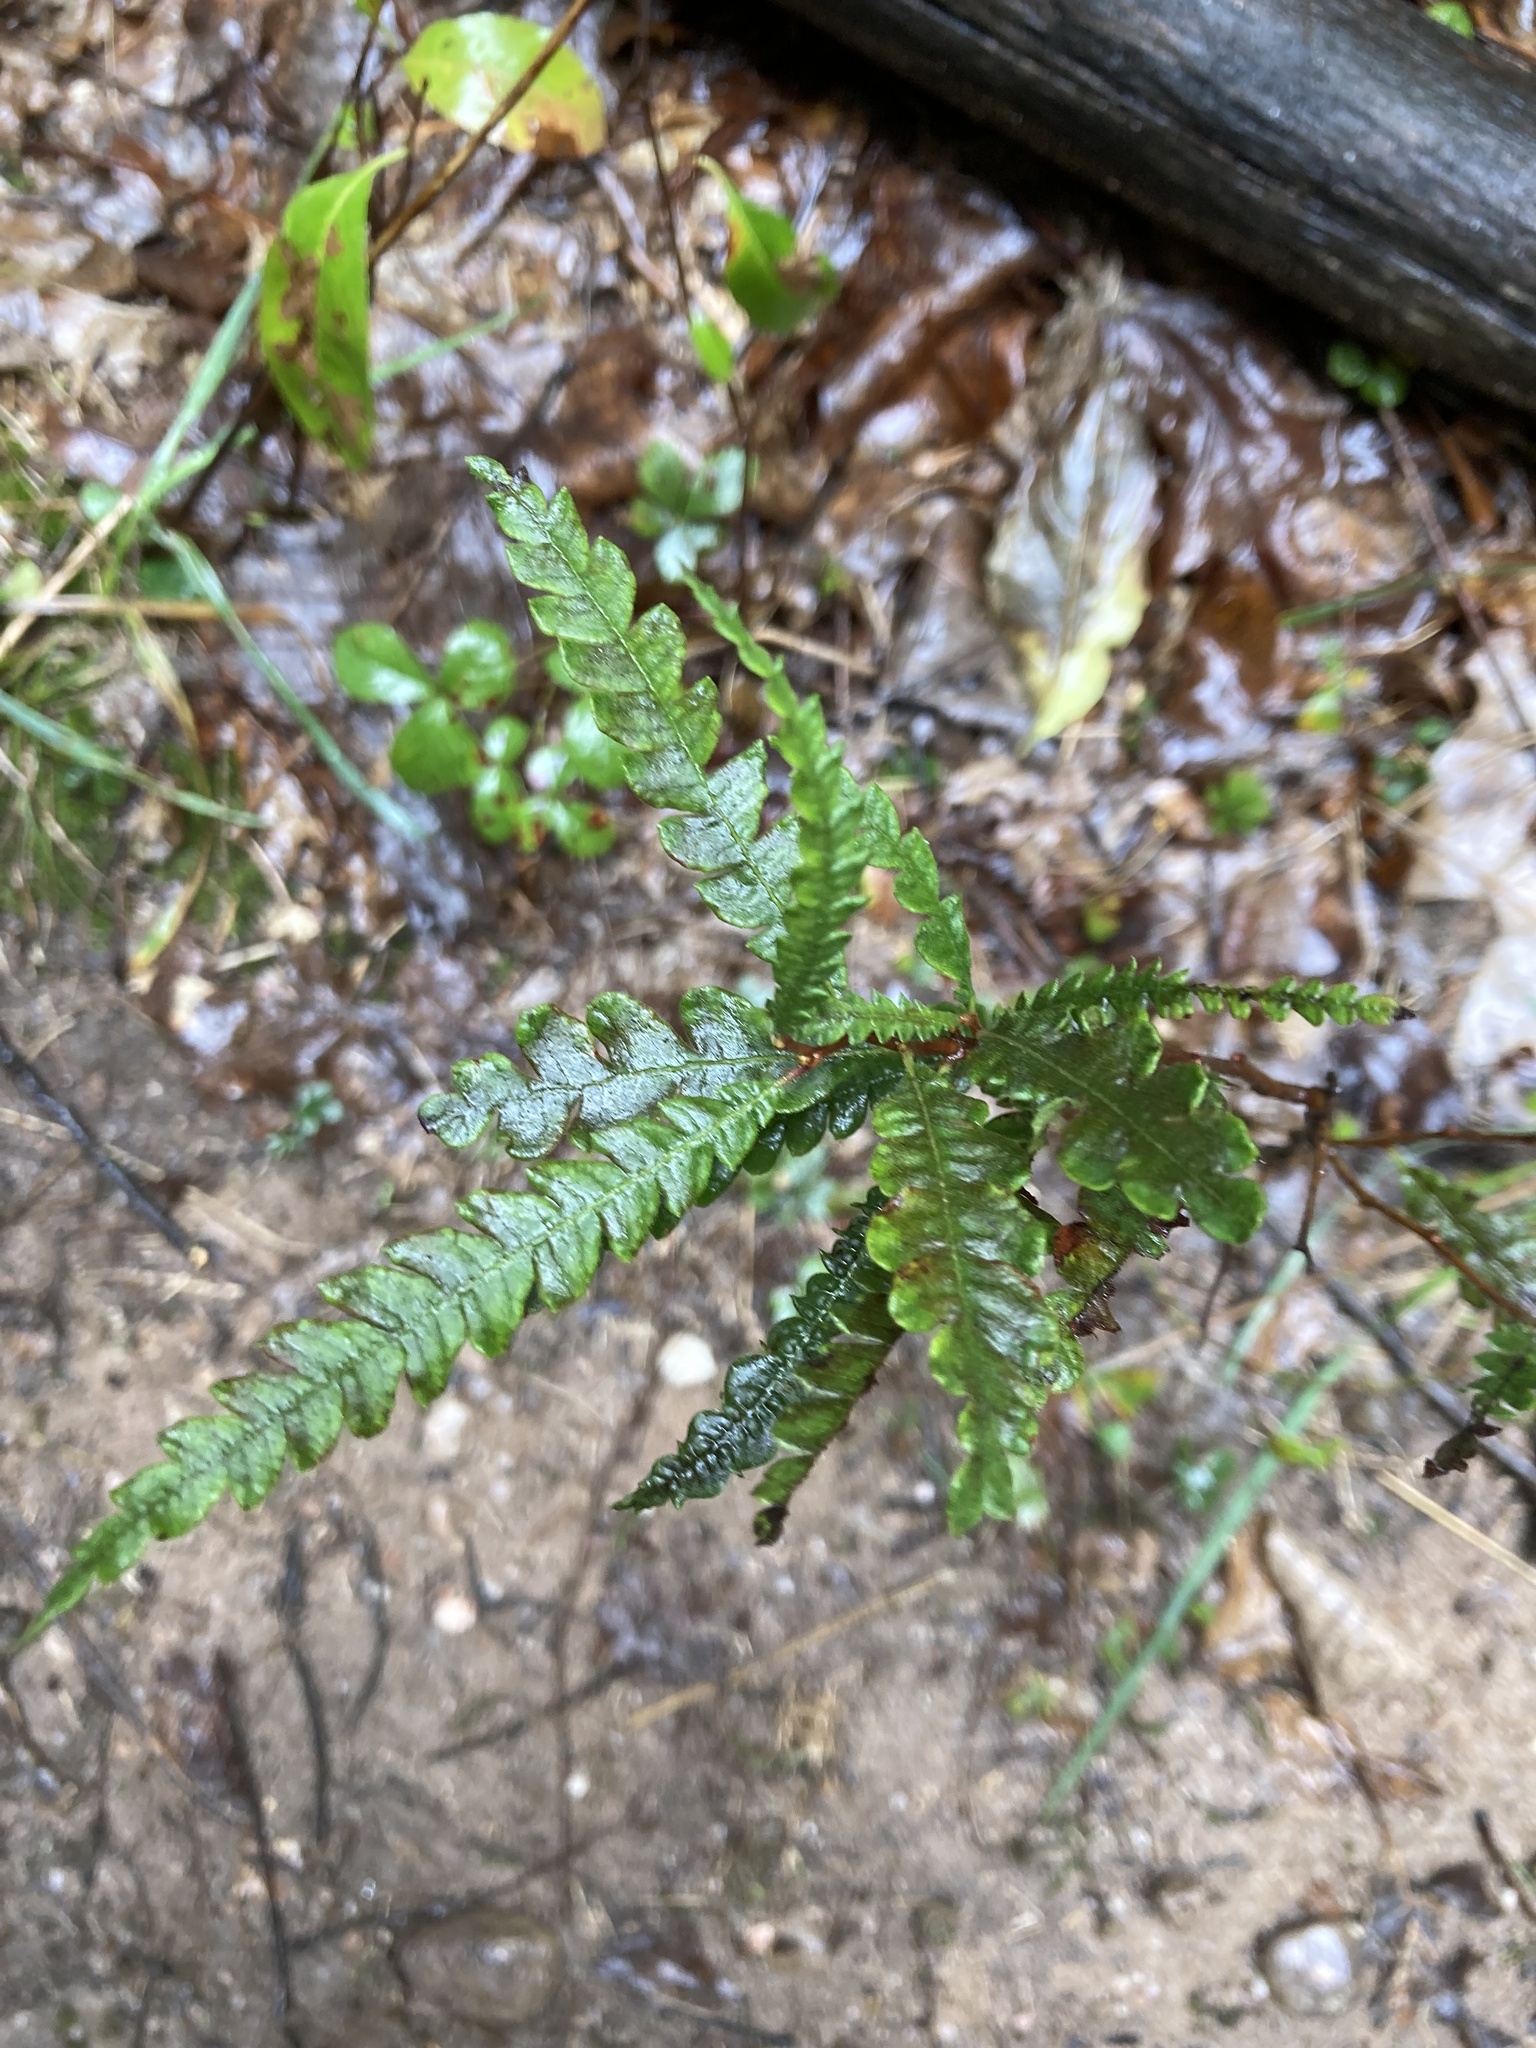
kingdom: Plantae
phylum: Tracheophyta
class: Magnoliopsida
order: Fagales
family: Myricaceae
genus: Comptonia
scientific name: Comptonia peregrina
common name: Sweet-fern
